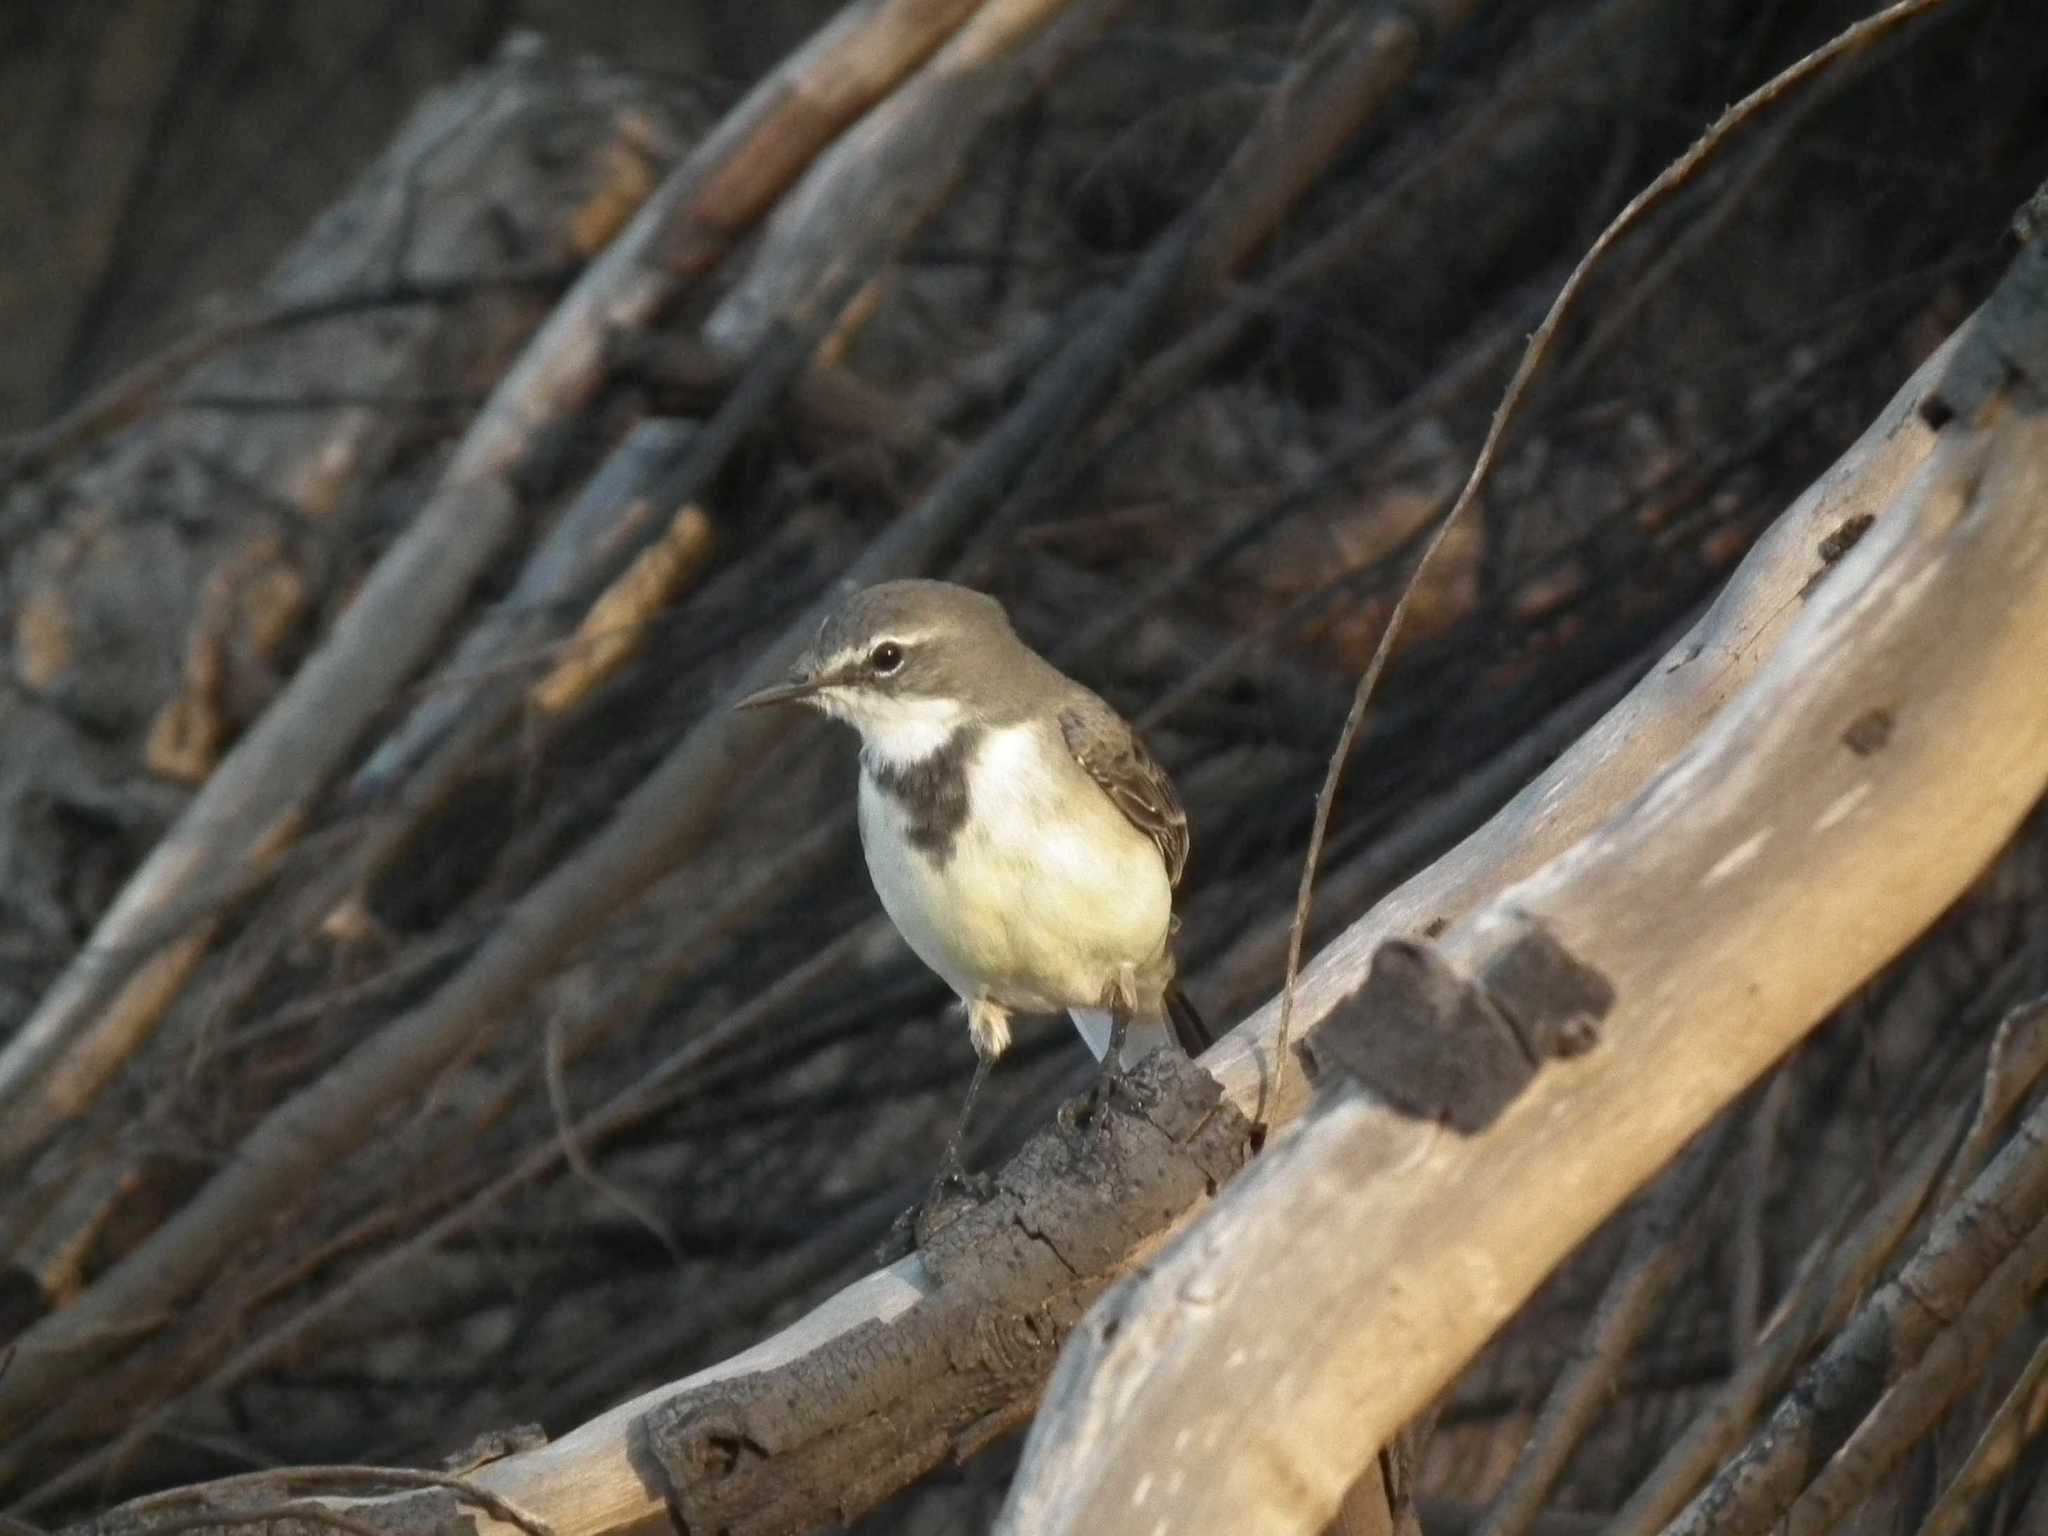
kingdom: Animalia
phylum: Chordata
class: Aves
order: Passeriformes
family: Motacillidae
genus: Motacilla
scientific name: Motacilla capensis
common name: Cape wagtail
